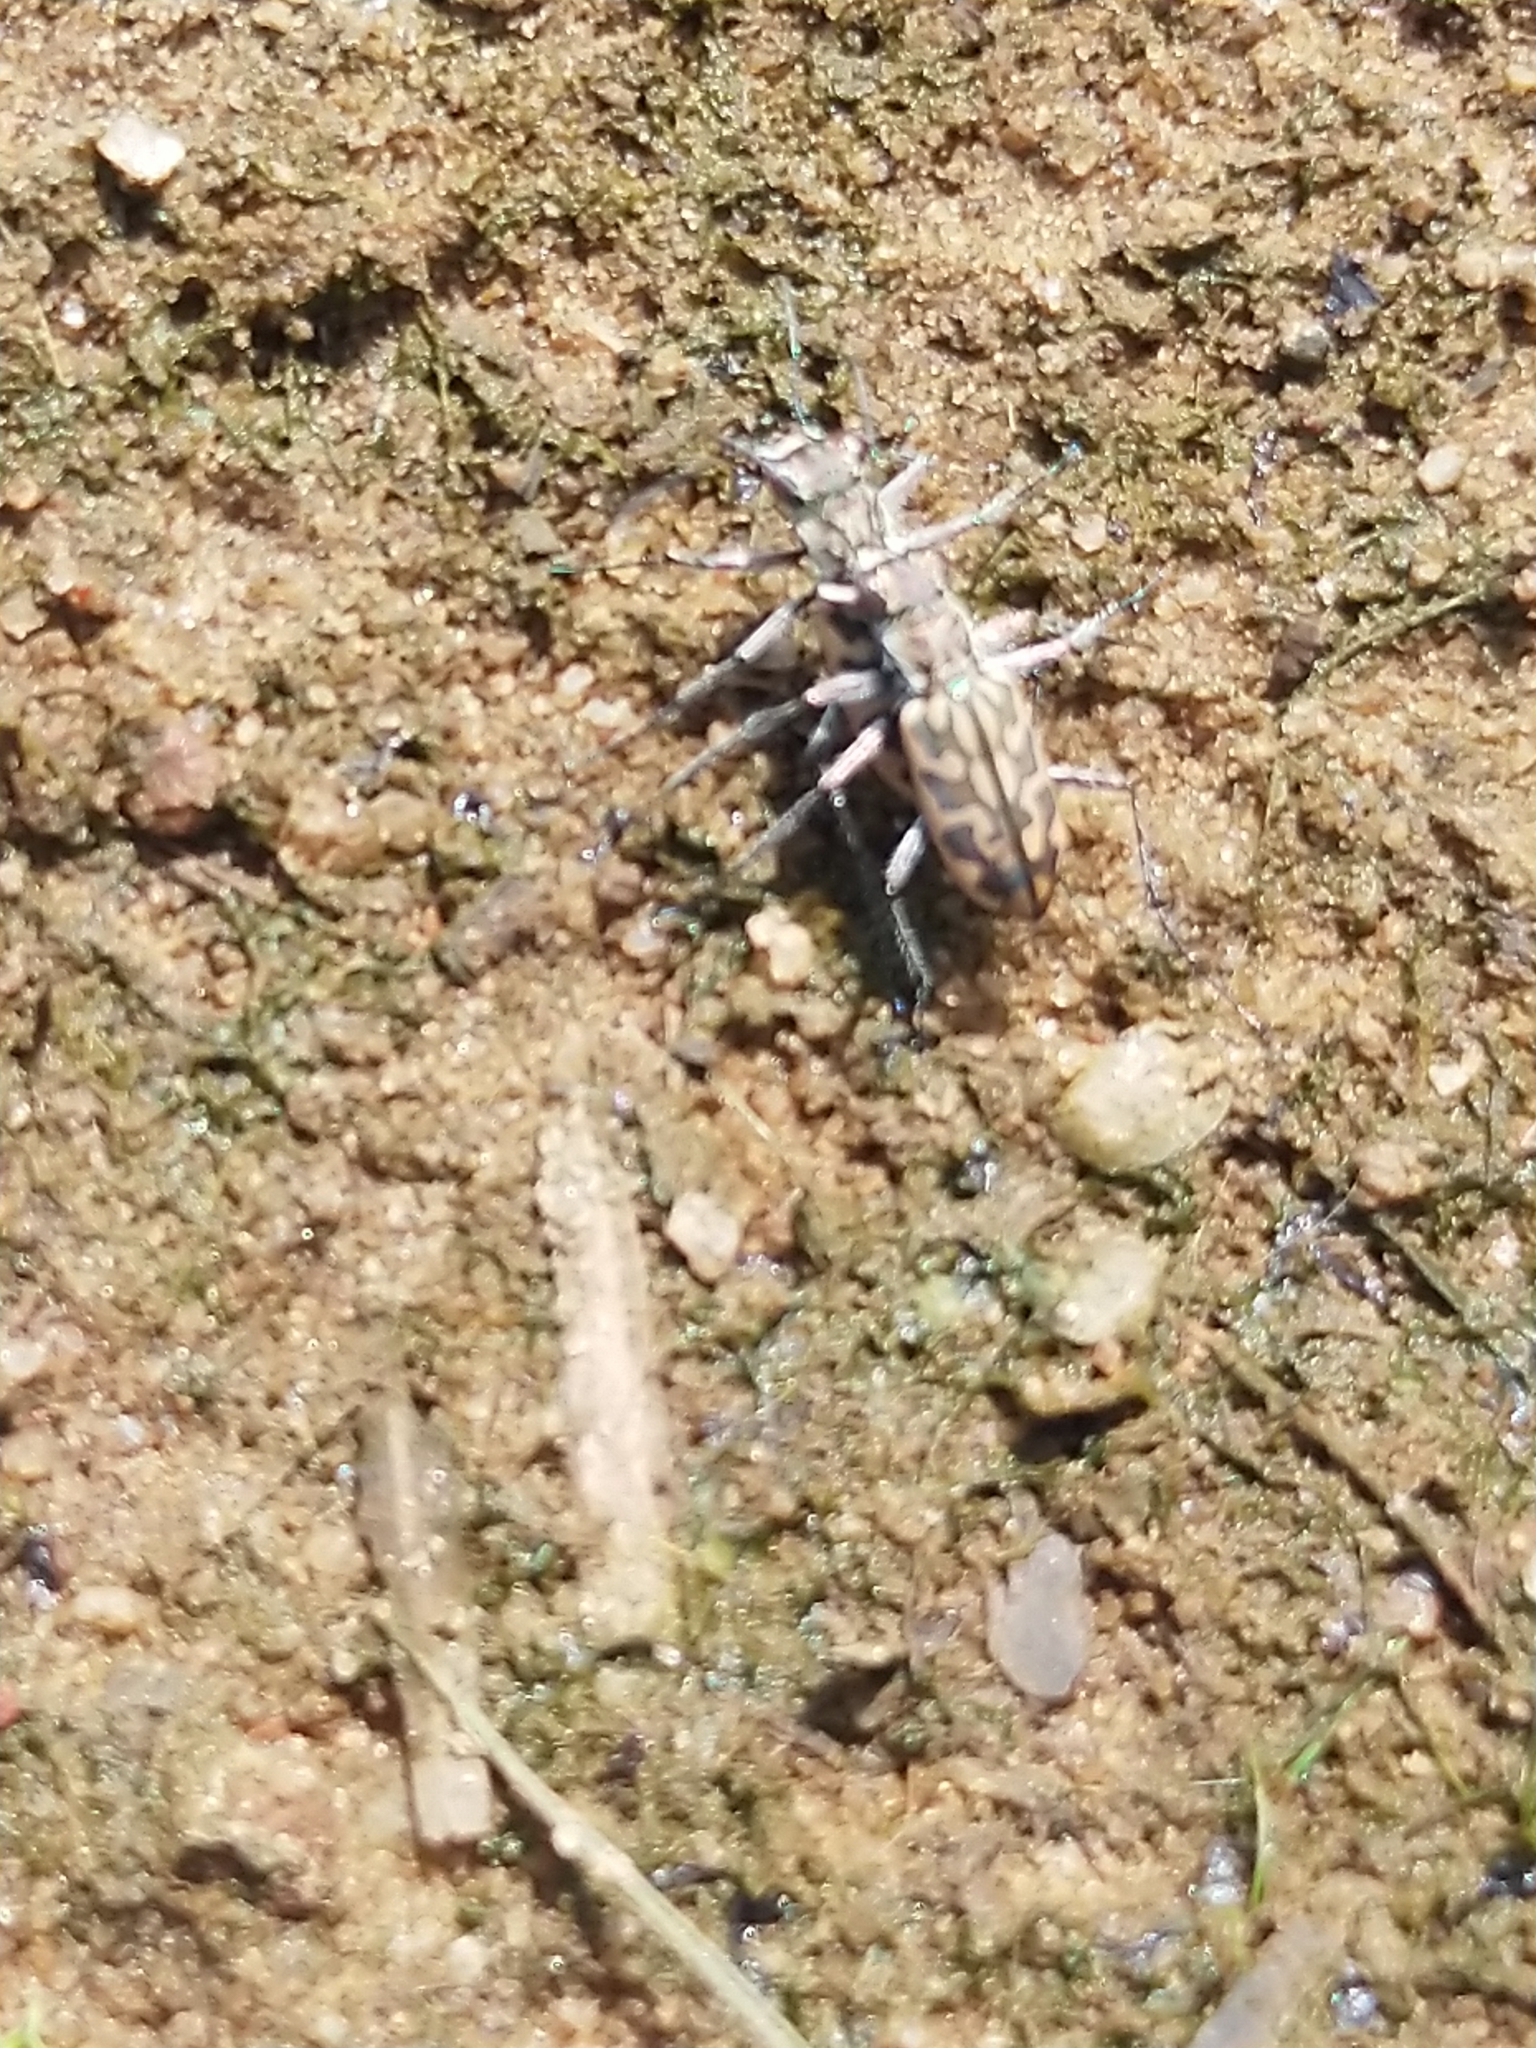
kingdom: Animalia
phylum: Arthropoda
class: Insecta
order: Coleoptera
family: Carabidae
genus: Lophyra
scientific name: Lophyra cancellata
